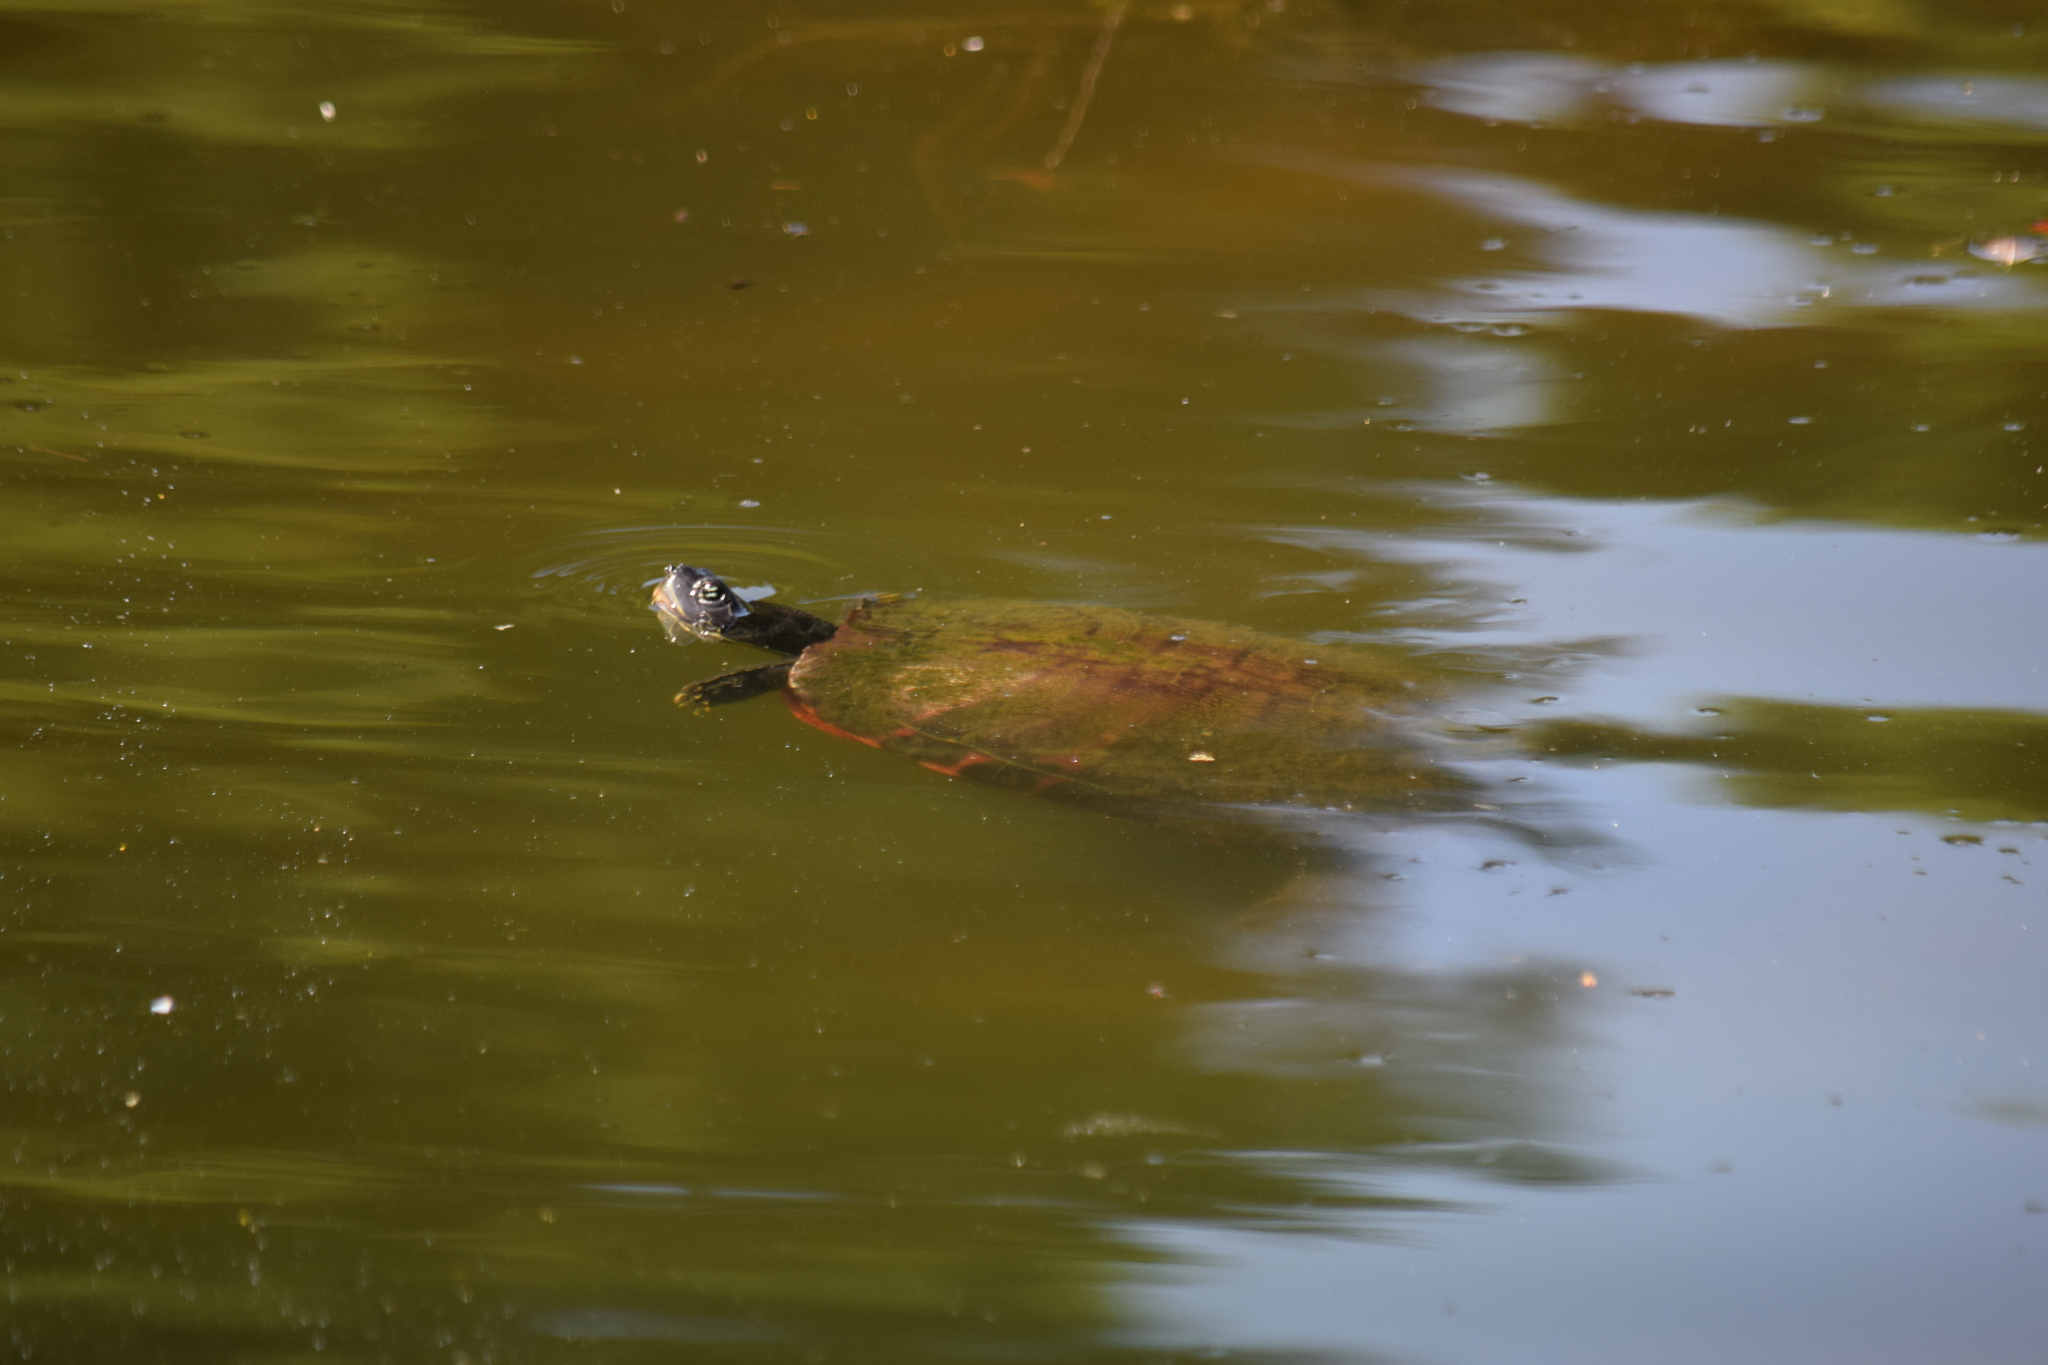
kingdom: Animalia
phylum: Chordata
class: Testudines
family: Emydidae
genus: Pseudemys
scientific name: Pseudemys rubriventris
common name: American red-bellied turtle
